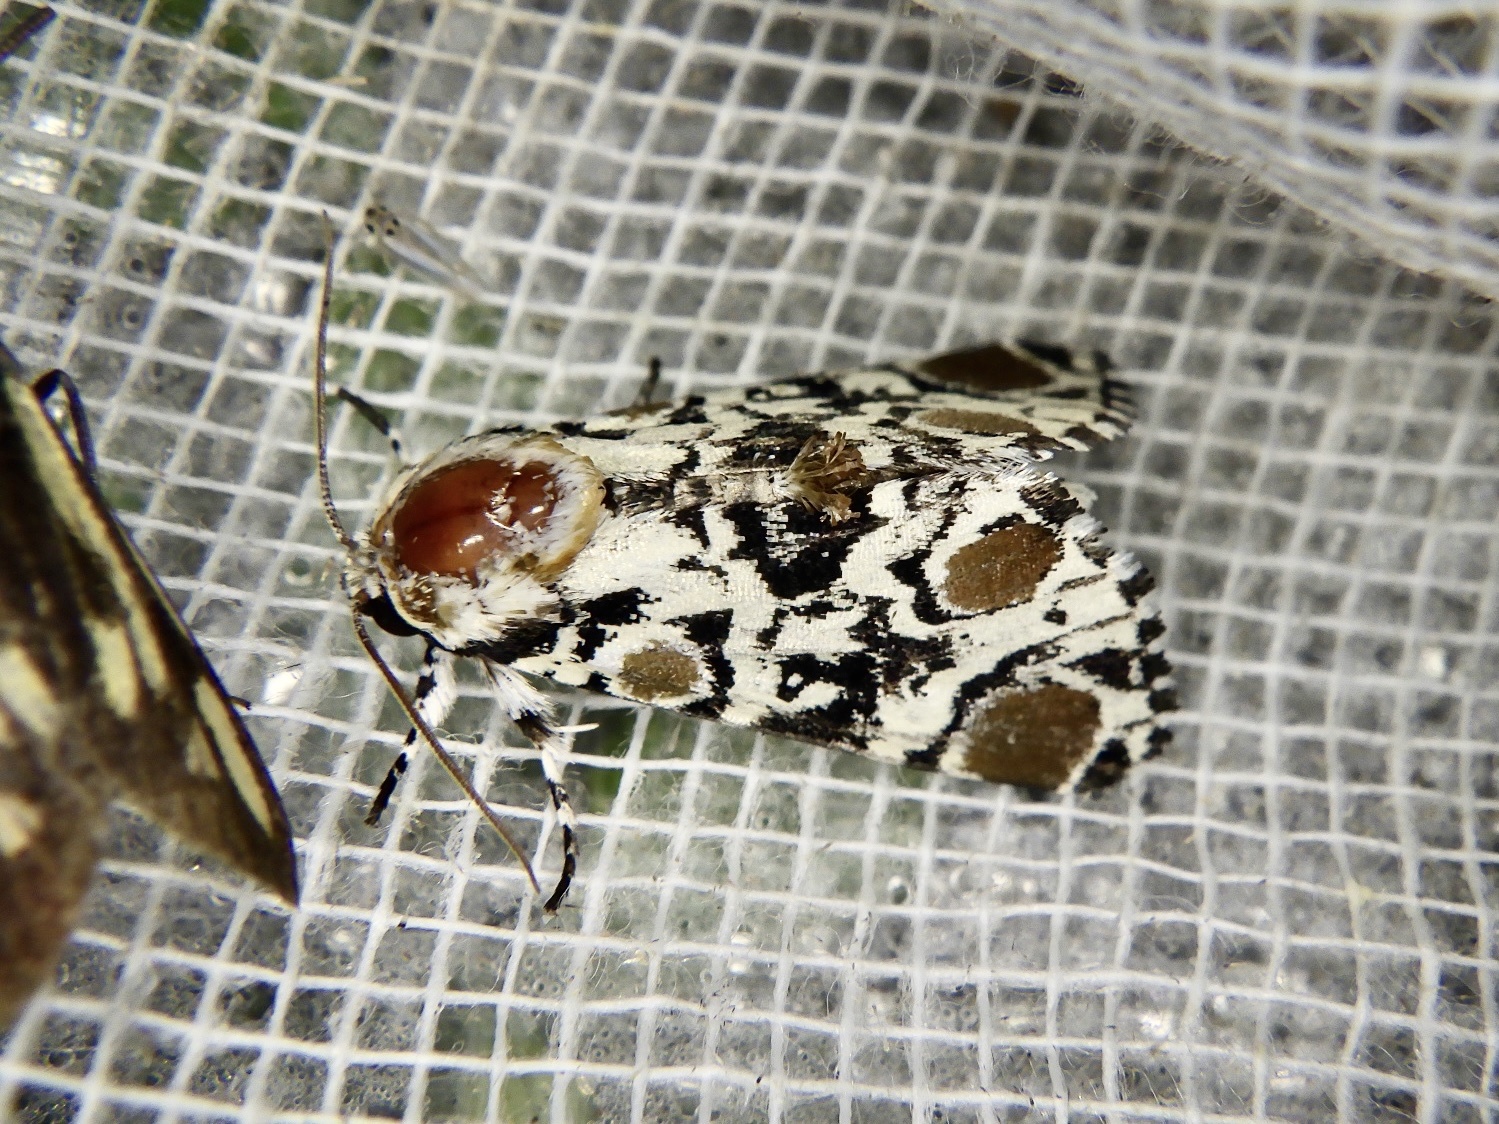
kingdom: Animalia
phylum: Arthropoda
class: Insecta
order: Lepidoptera
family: Noctuidae
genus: Harrisimemna
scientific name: Harrisimemna marmorata
